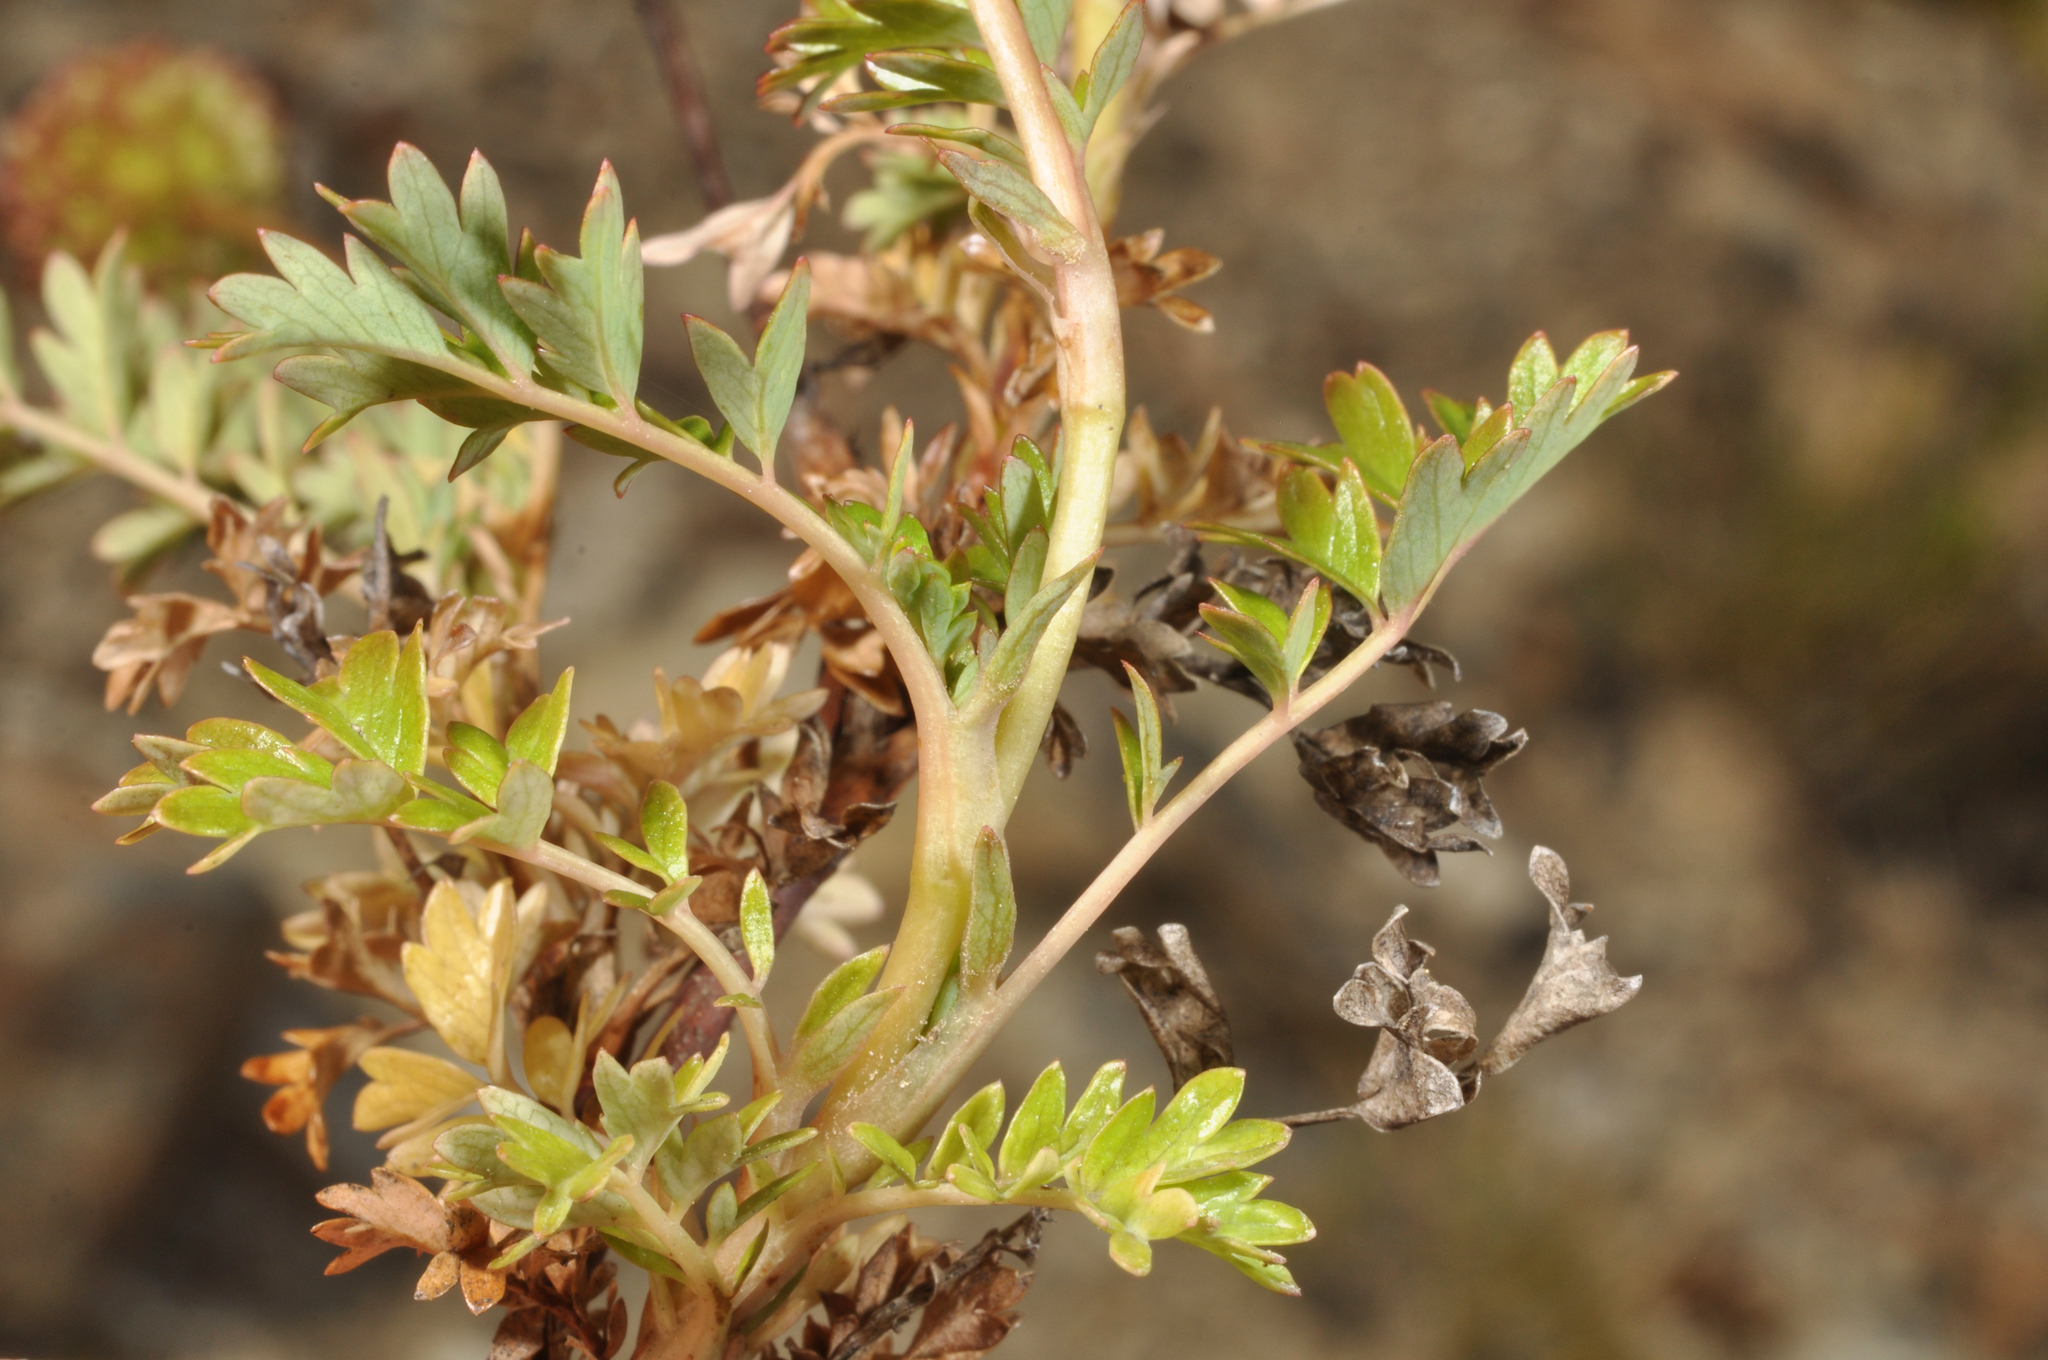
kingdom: Plantae
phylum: Tracheophyta
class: Magnoliopsida
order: Rosales
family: Rosaceae
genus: Acaena
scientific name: Acaena glabra
